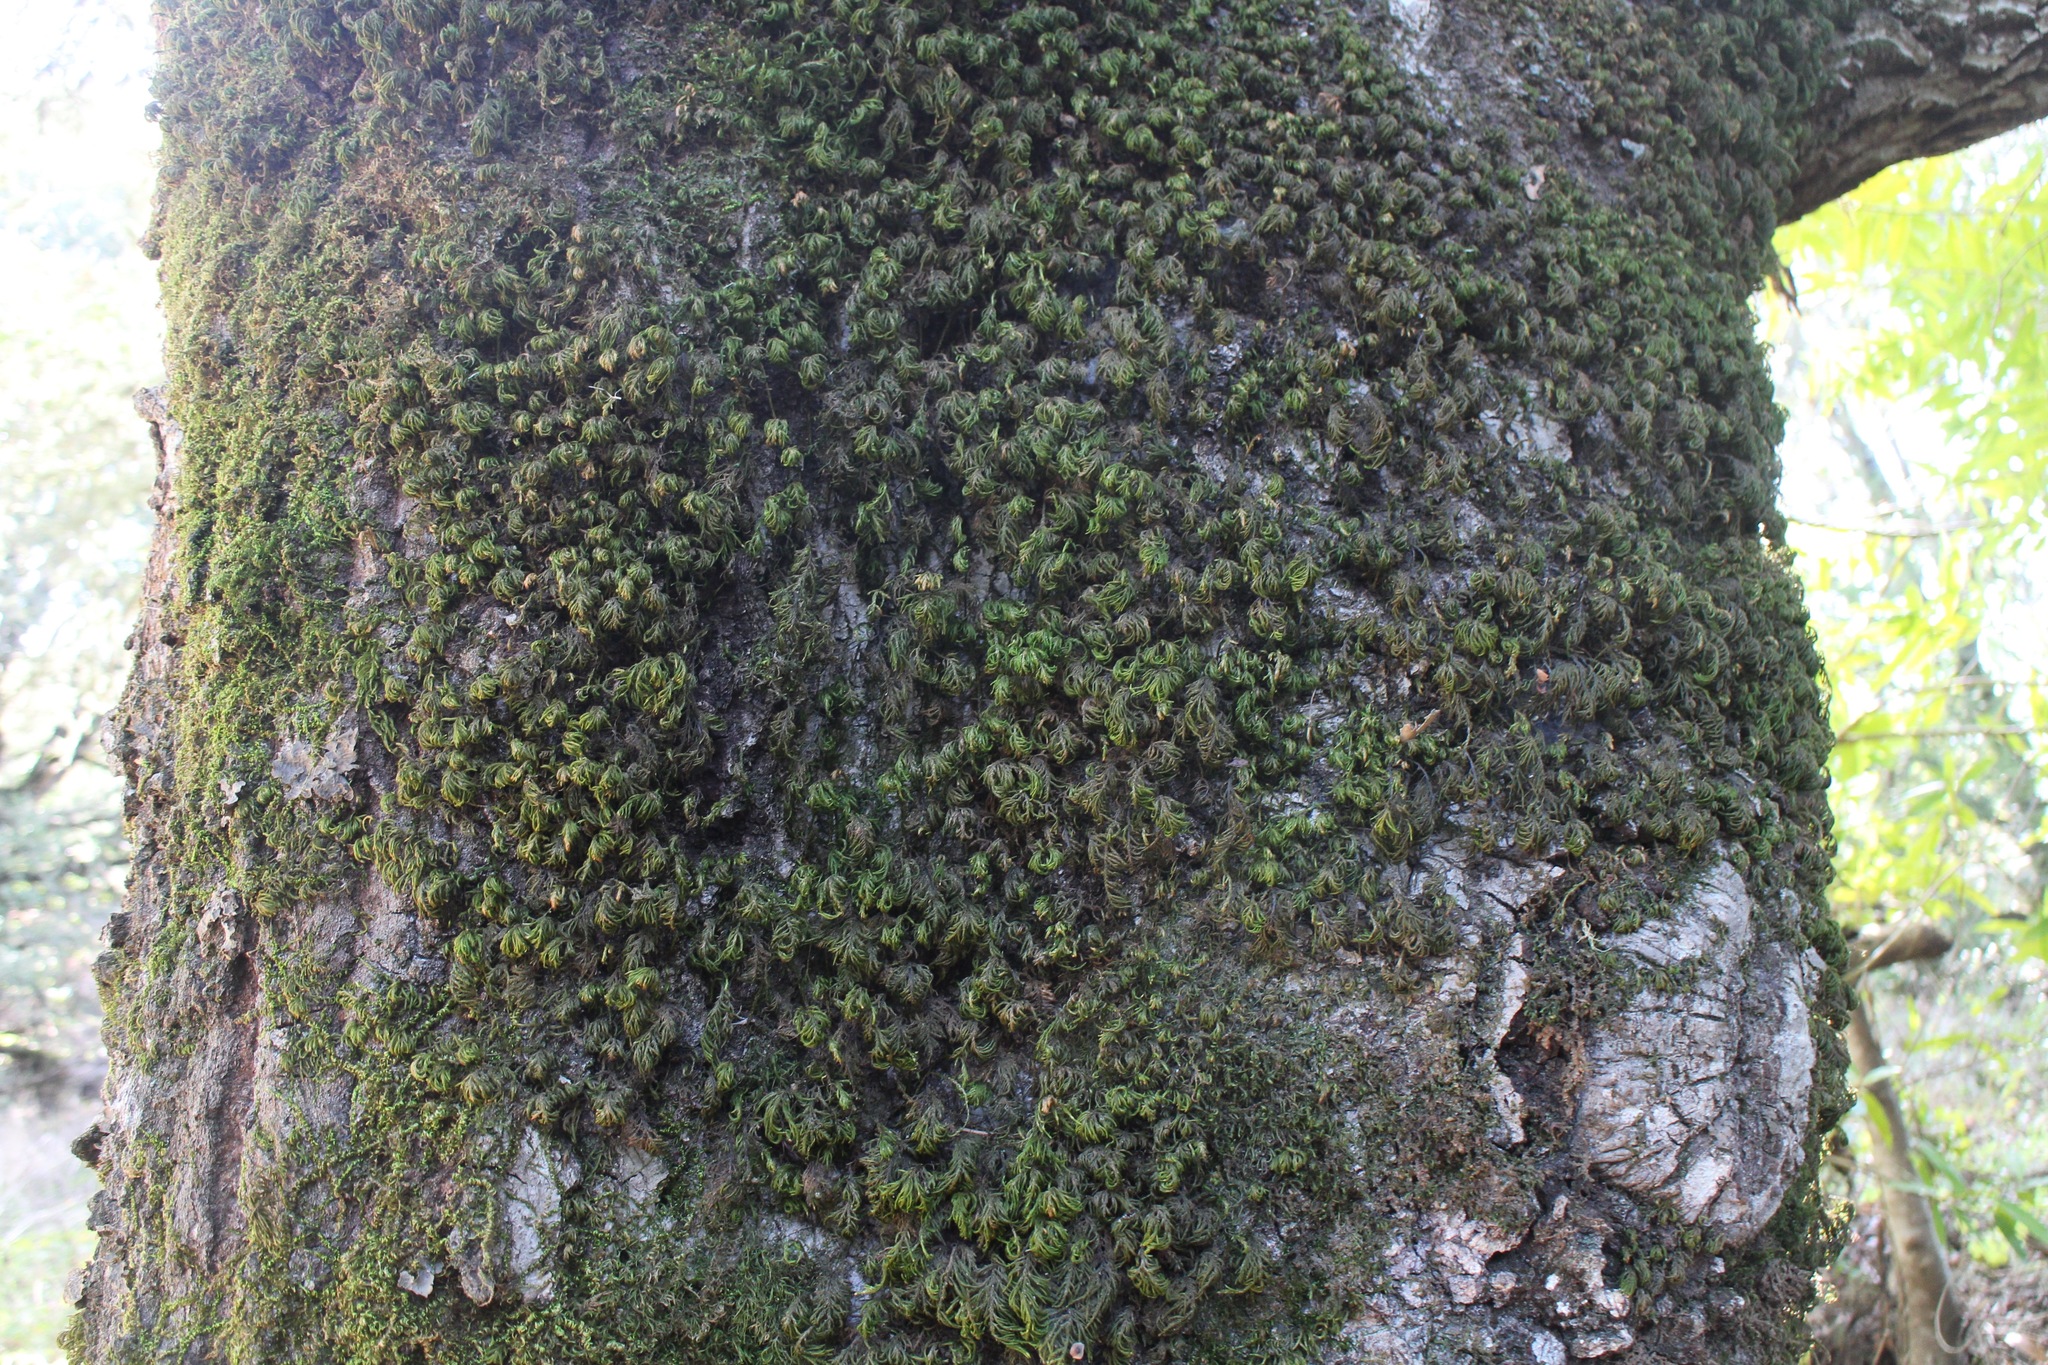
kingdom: Plantae
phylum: Bryophyta
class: Bryopsida
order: Hypnales
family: Cryphaeaceae
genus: Dendroalsia
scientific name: Dendroalsia abietina
